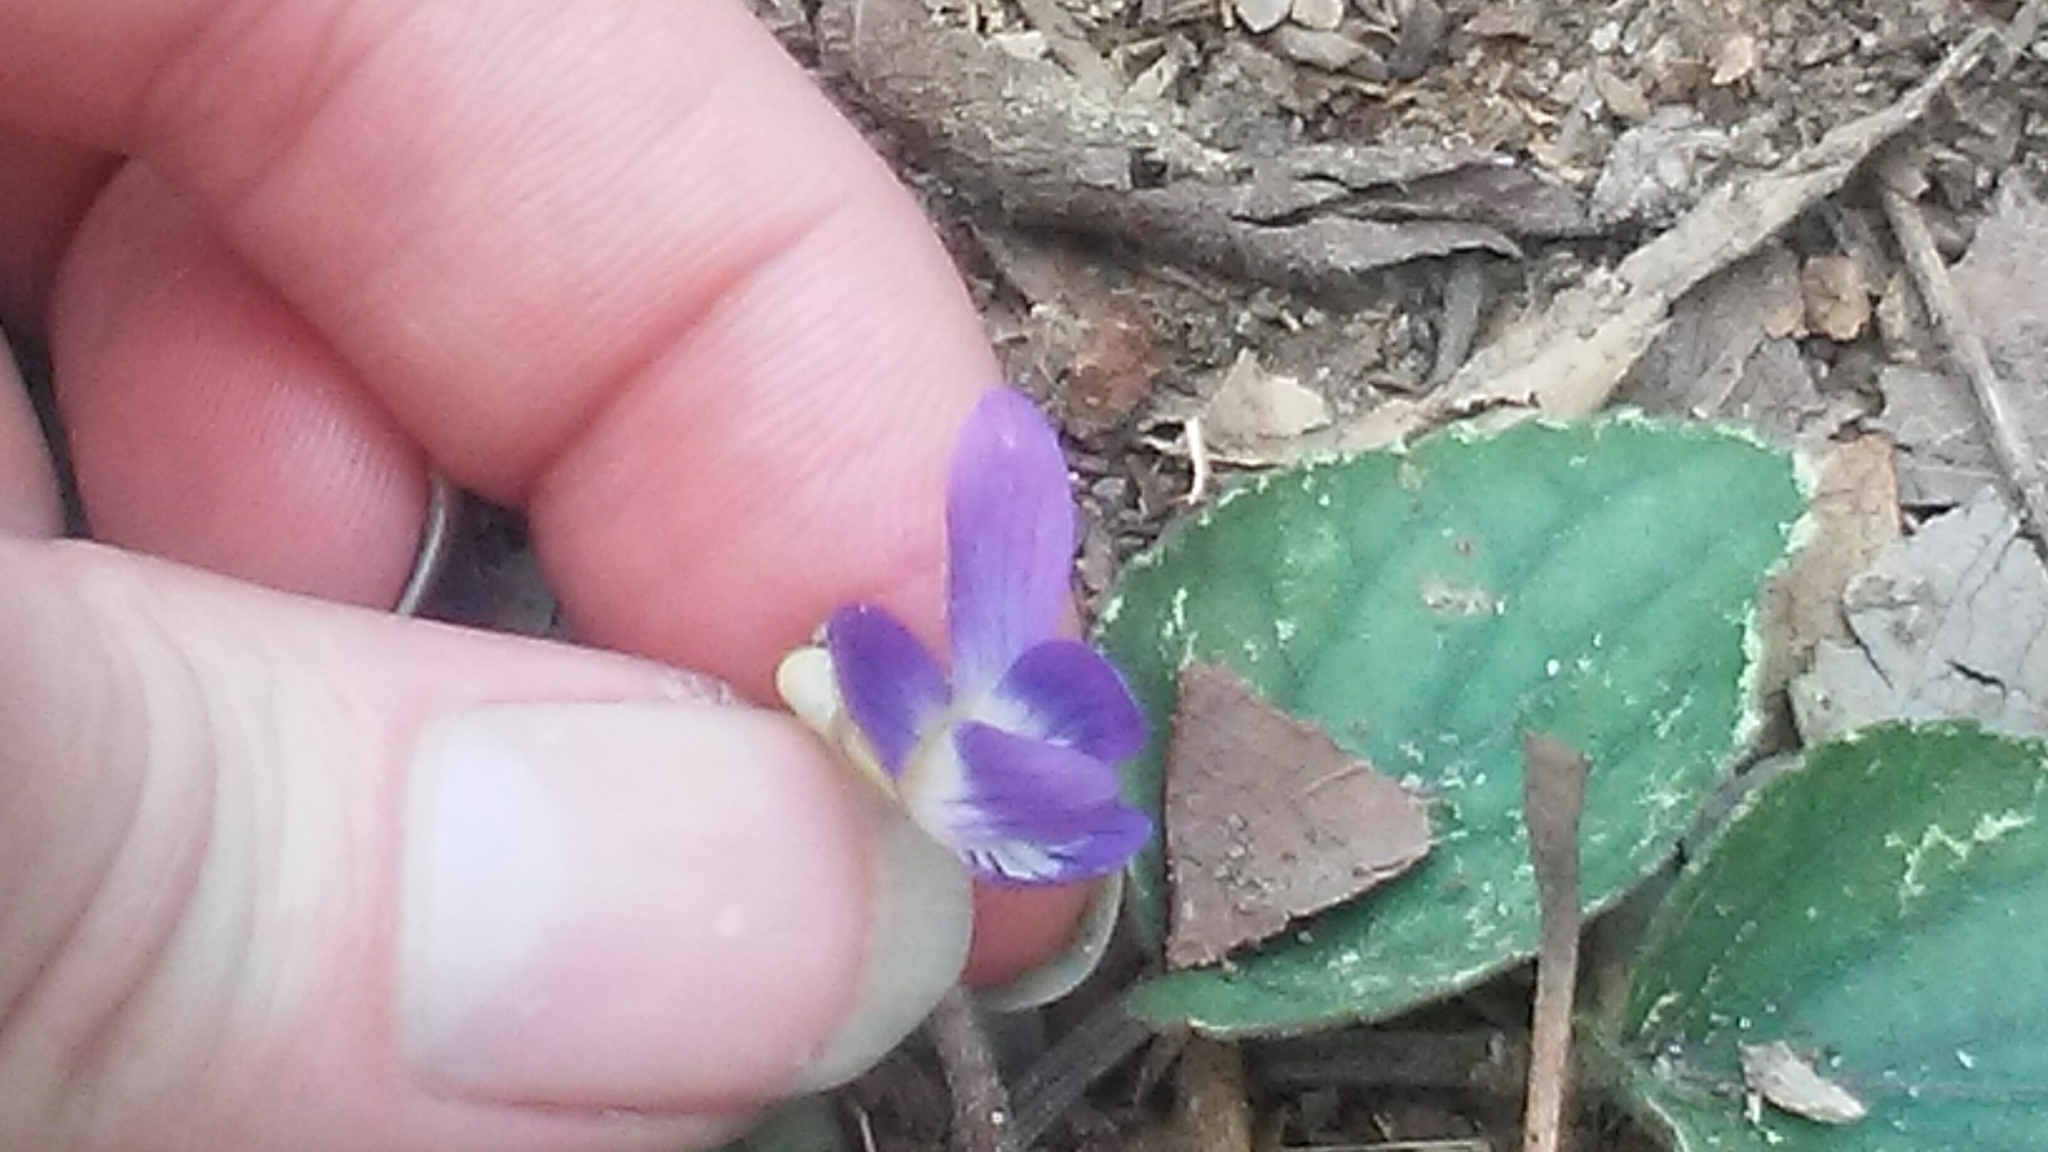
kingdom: Plantae
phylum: Tracheophyta
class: Magnoliopsida
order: Malpighiales
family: Violaceae
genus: Viola
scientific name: Viola villosa
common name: Carolina violet
